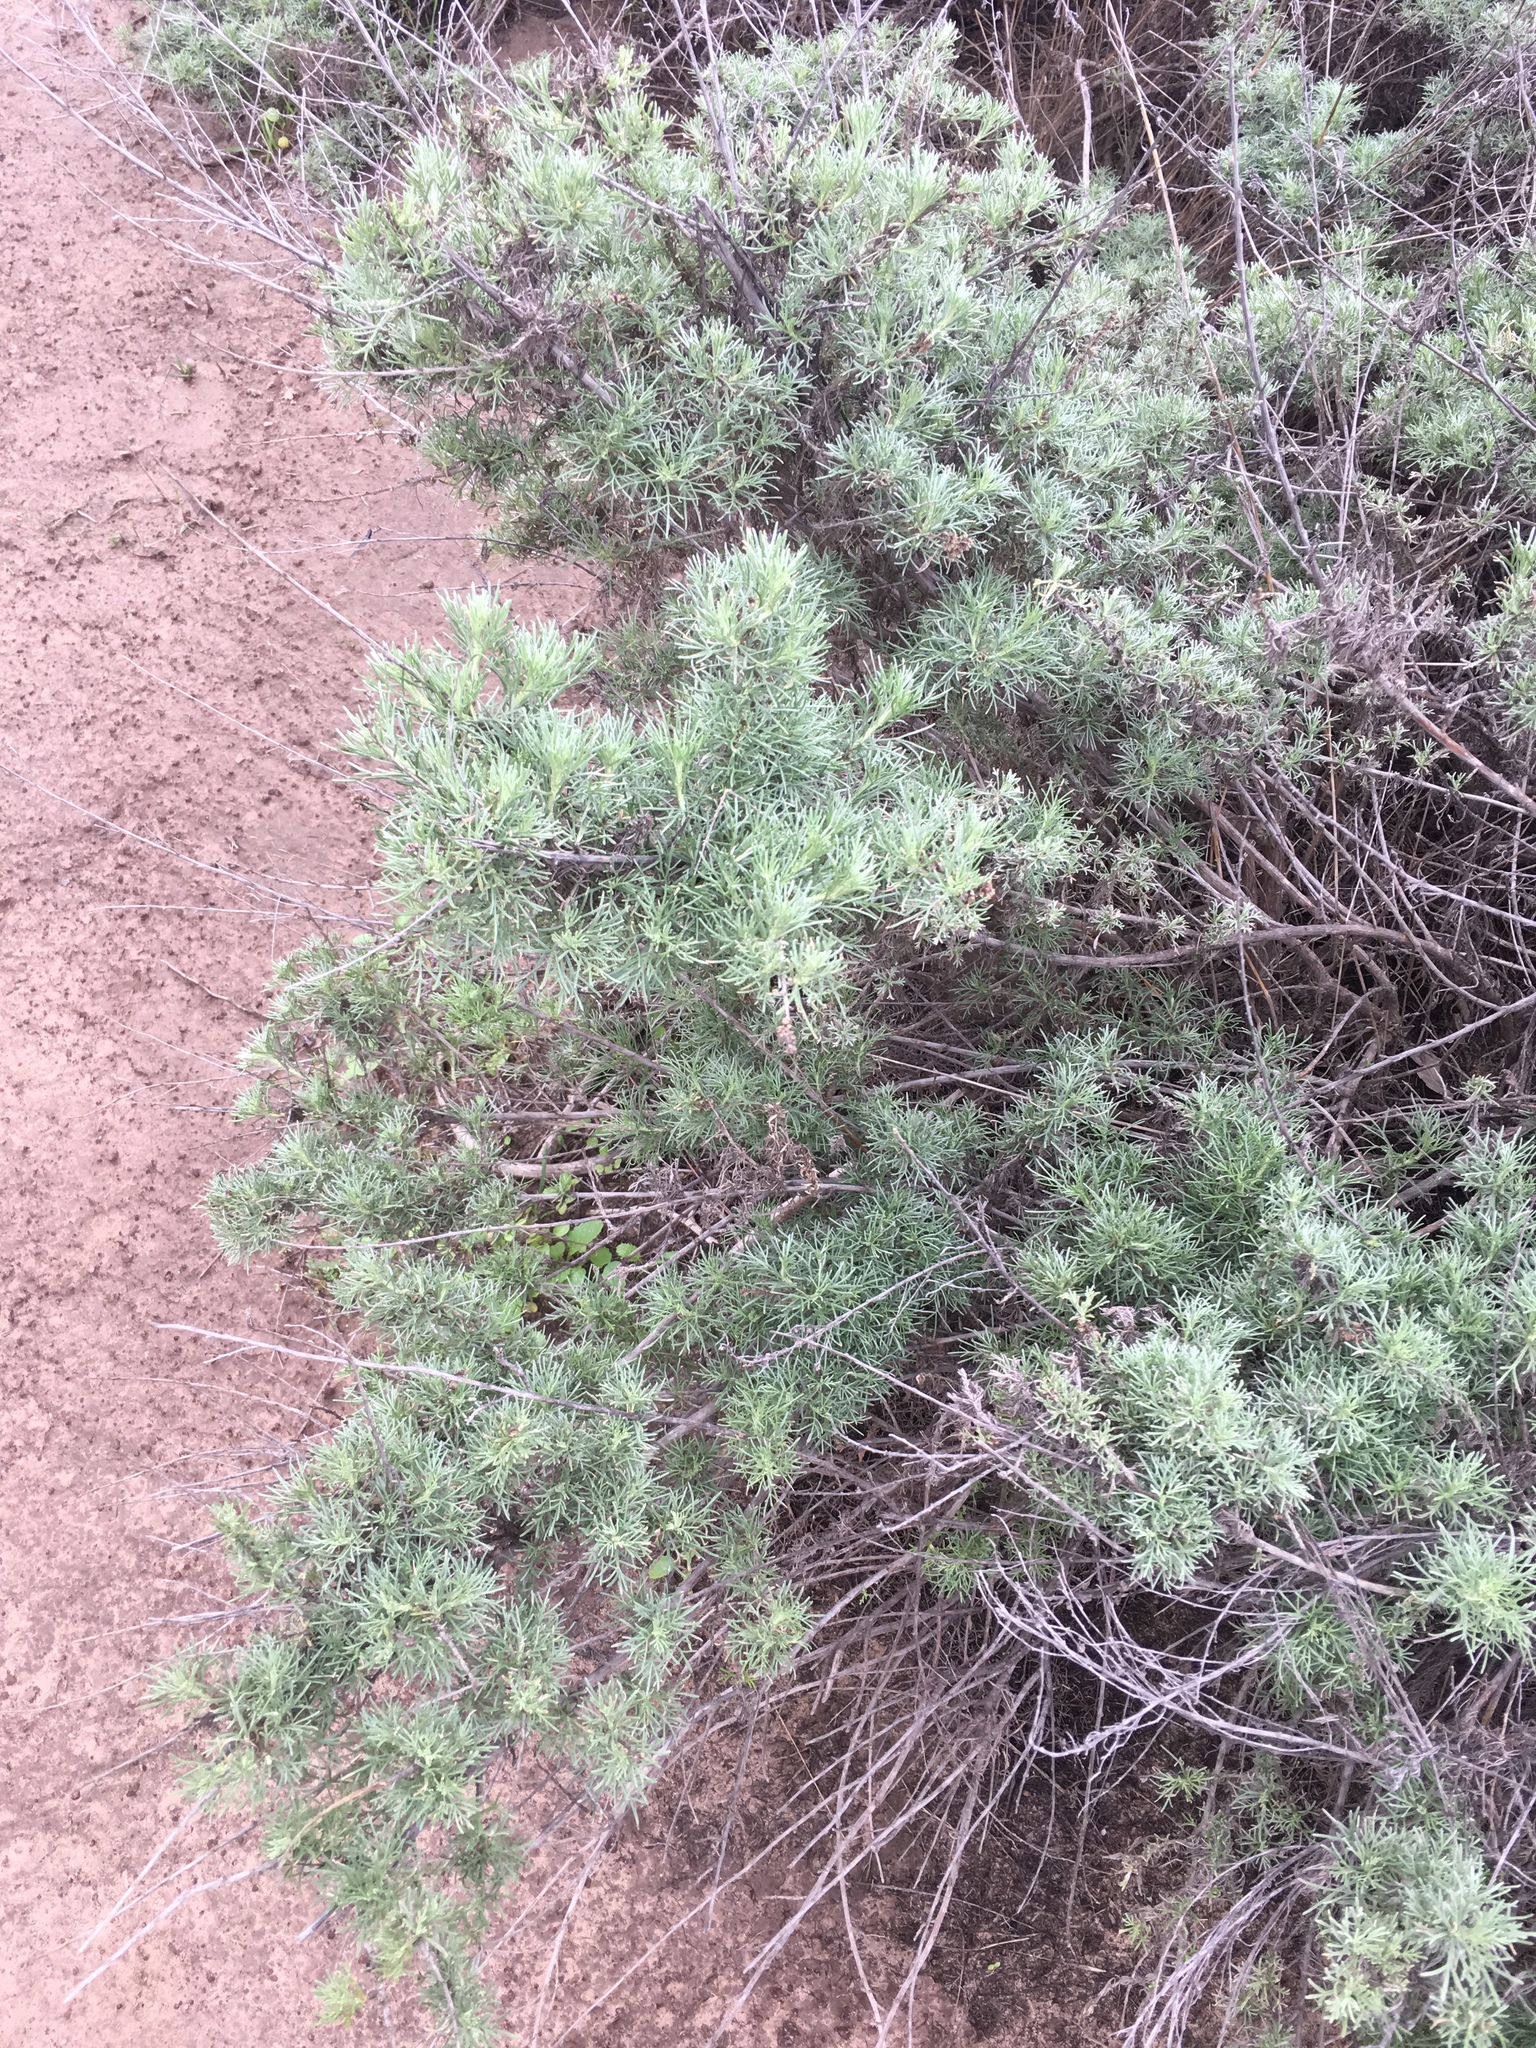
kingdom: Plantae
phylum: Tracheophyta
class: Magnoliopsida
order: Asterales
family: Asteraceae
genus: Artemisia
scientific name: Artemisia californica
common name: California sagebrush
